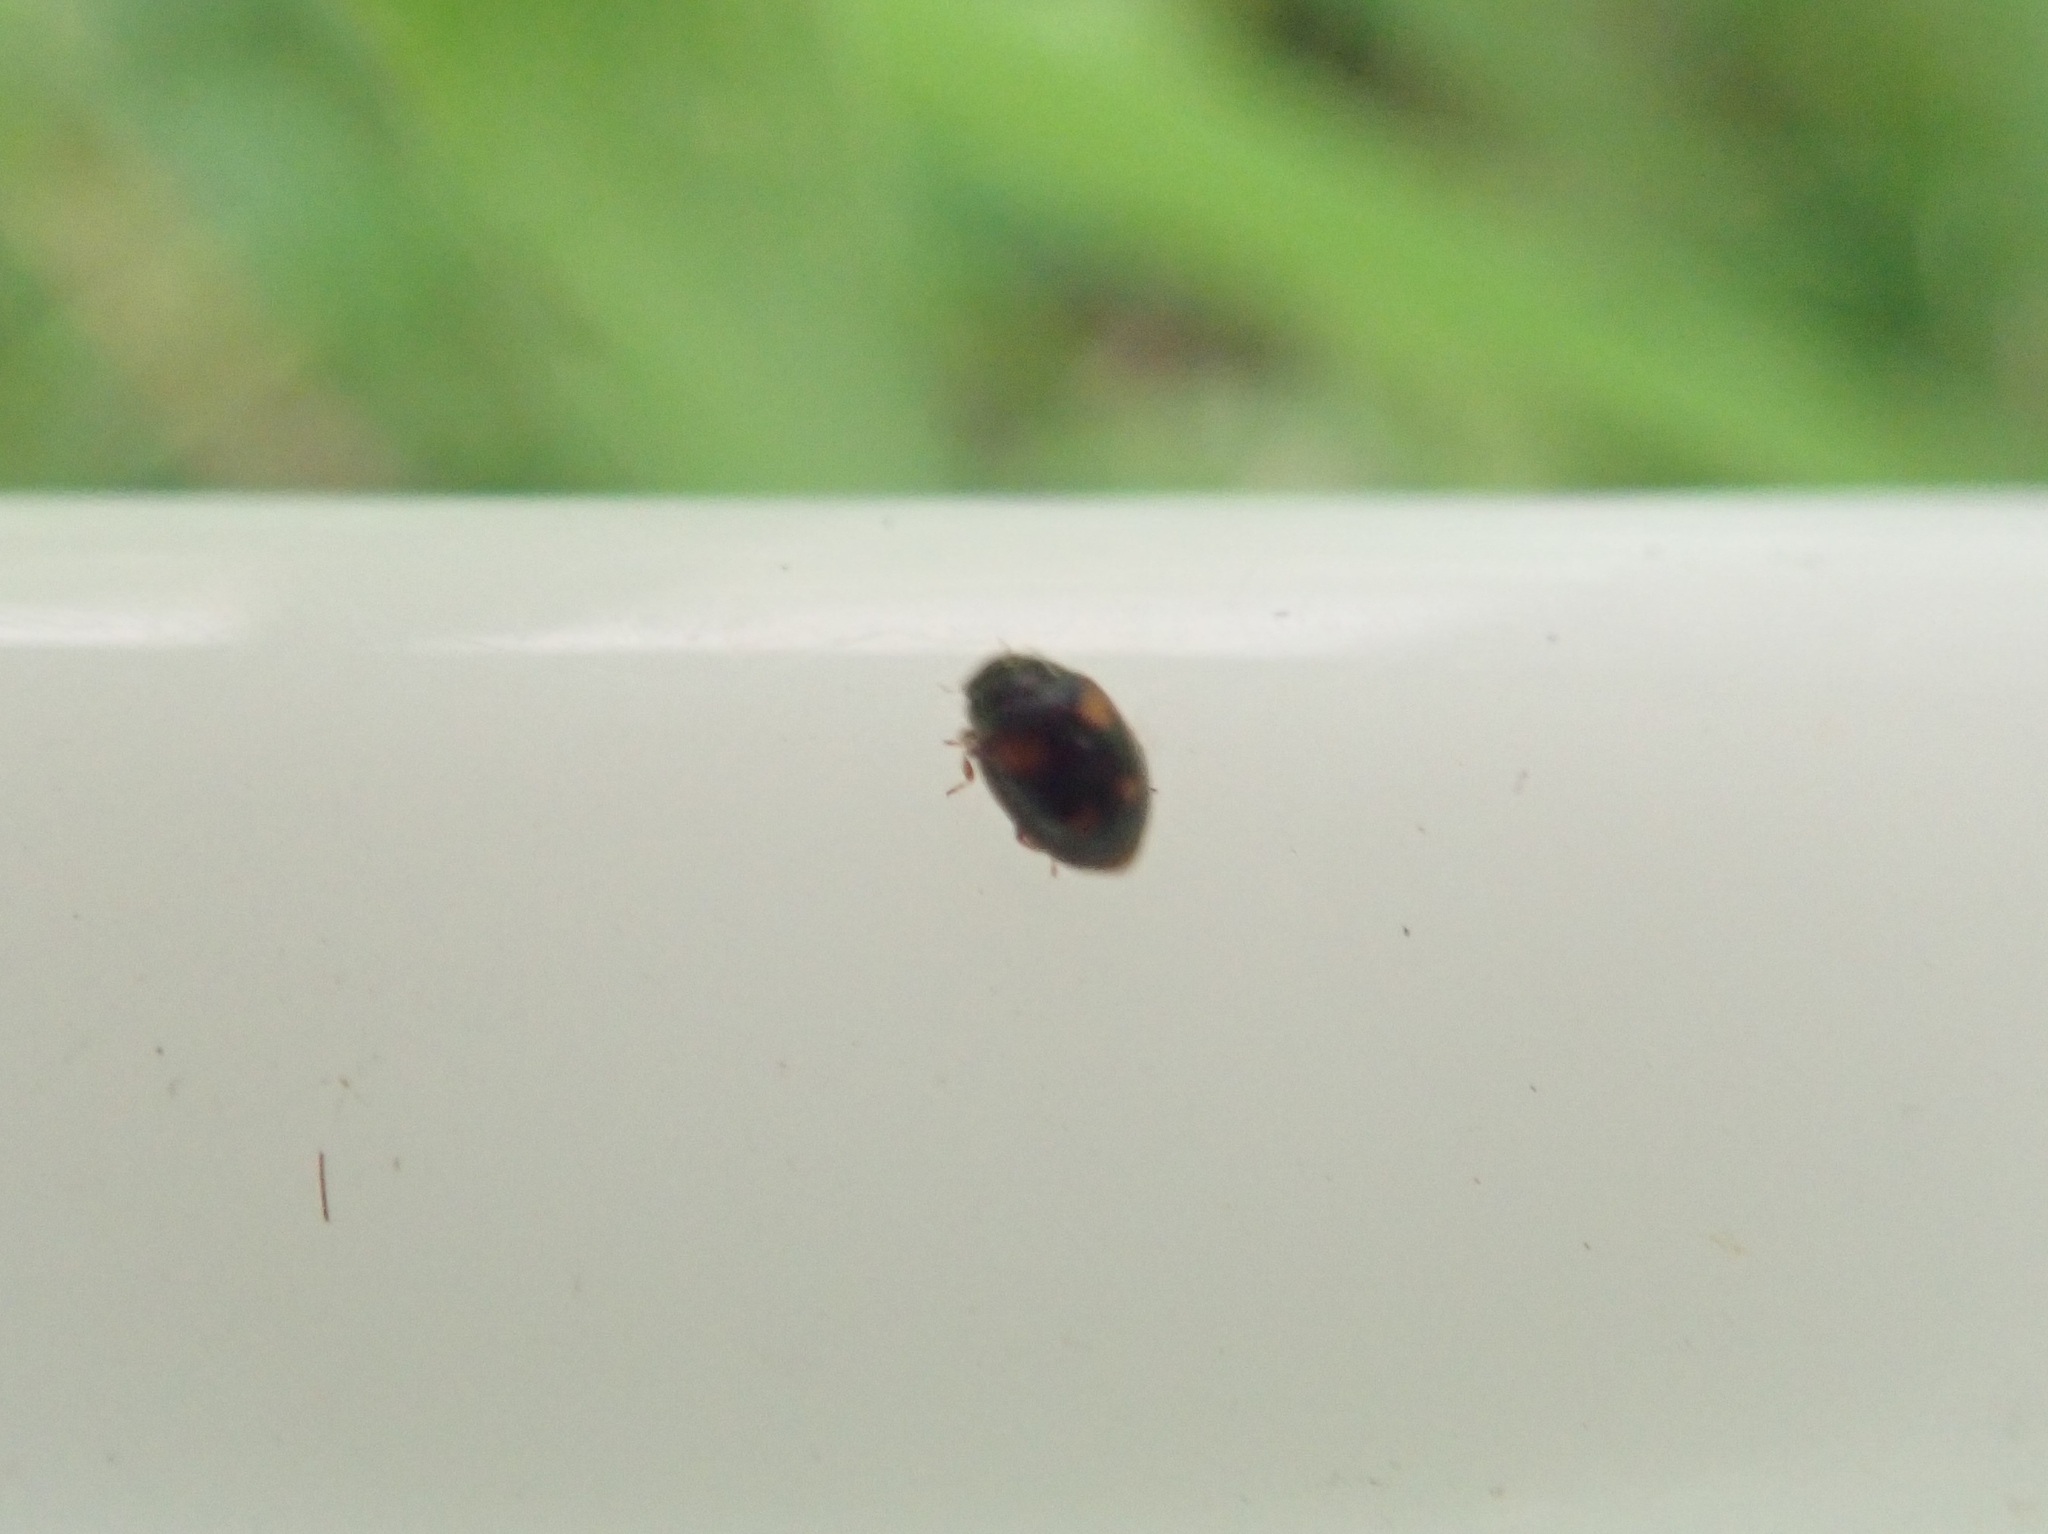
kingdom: Animalia
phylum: Arthropoda
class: Insecta
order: Coleoptera
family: Coccinellidae
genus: Nephus
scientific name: Nephus quadrimaculatus
